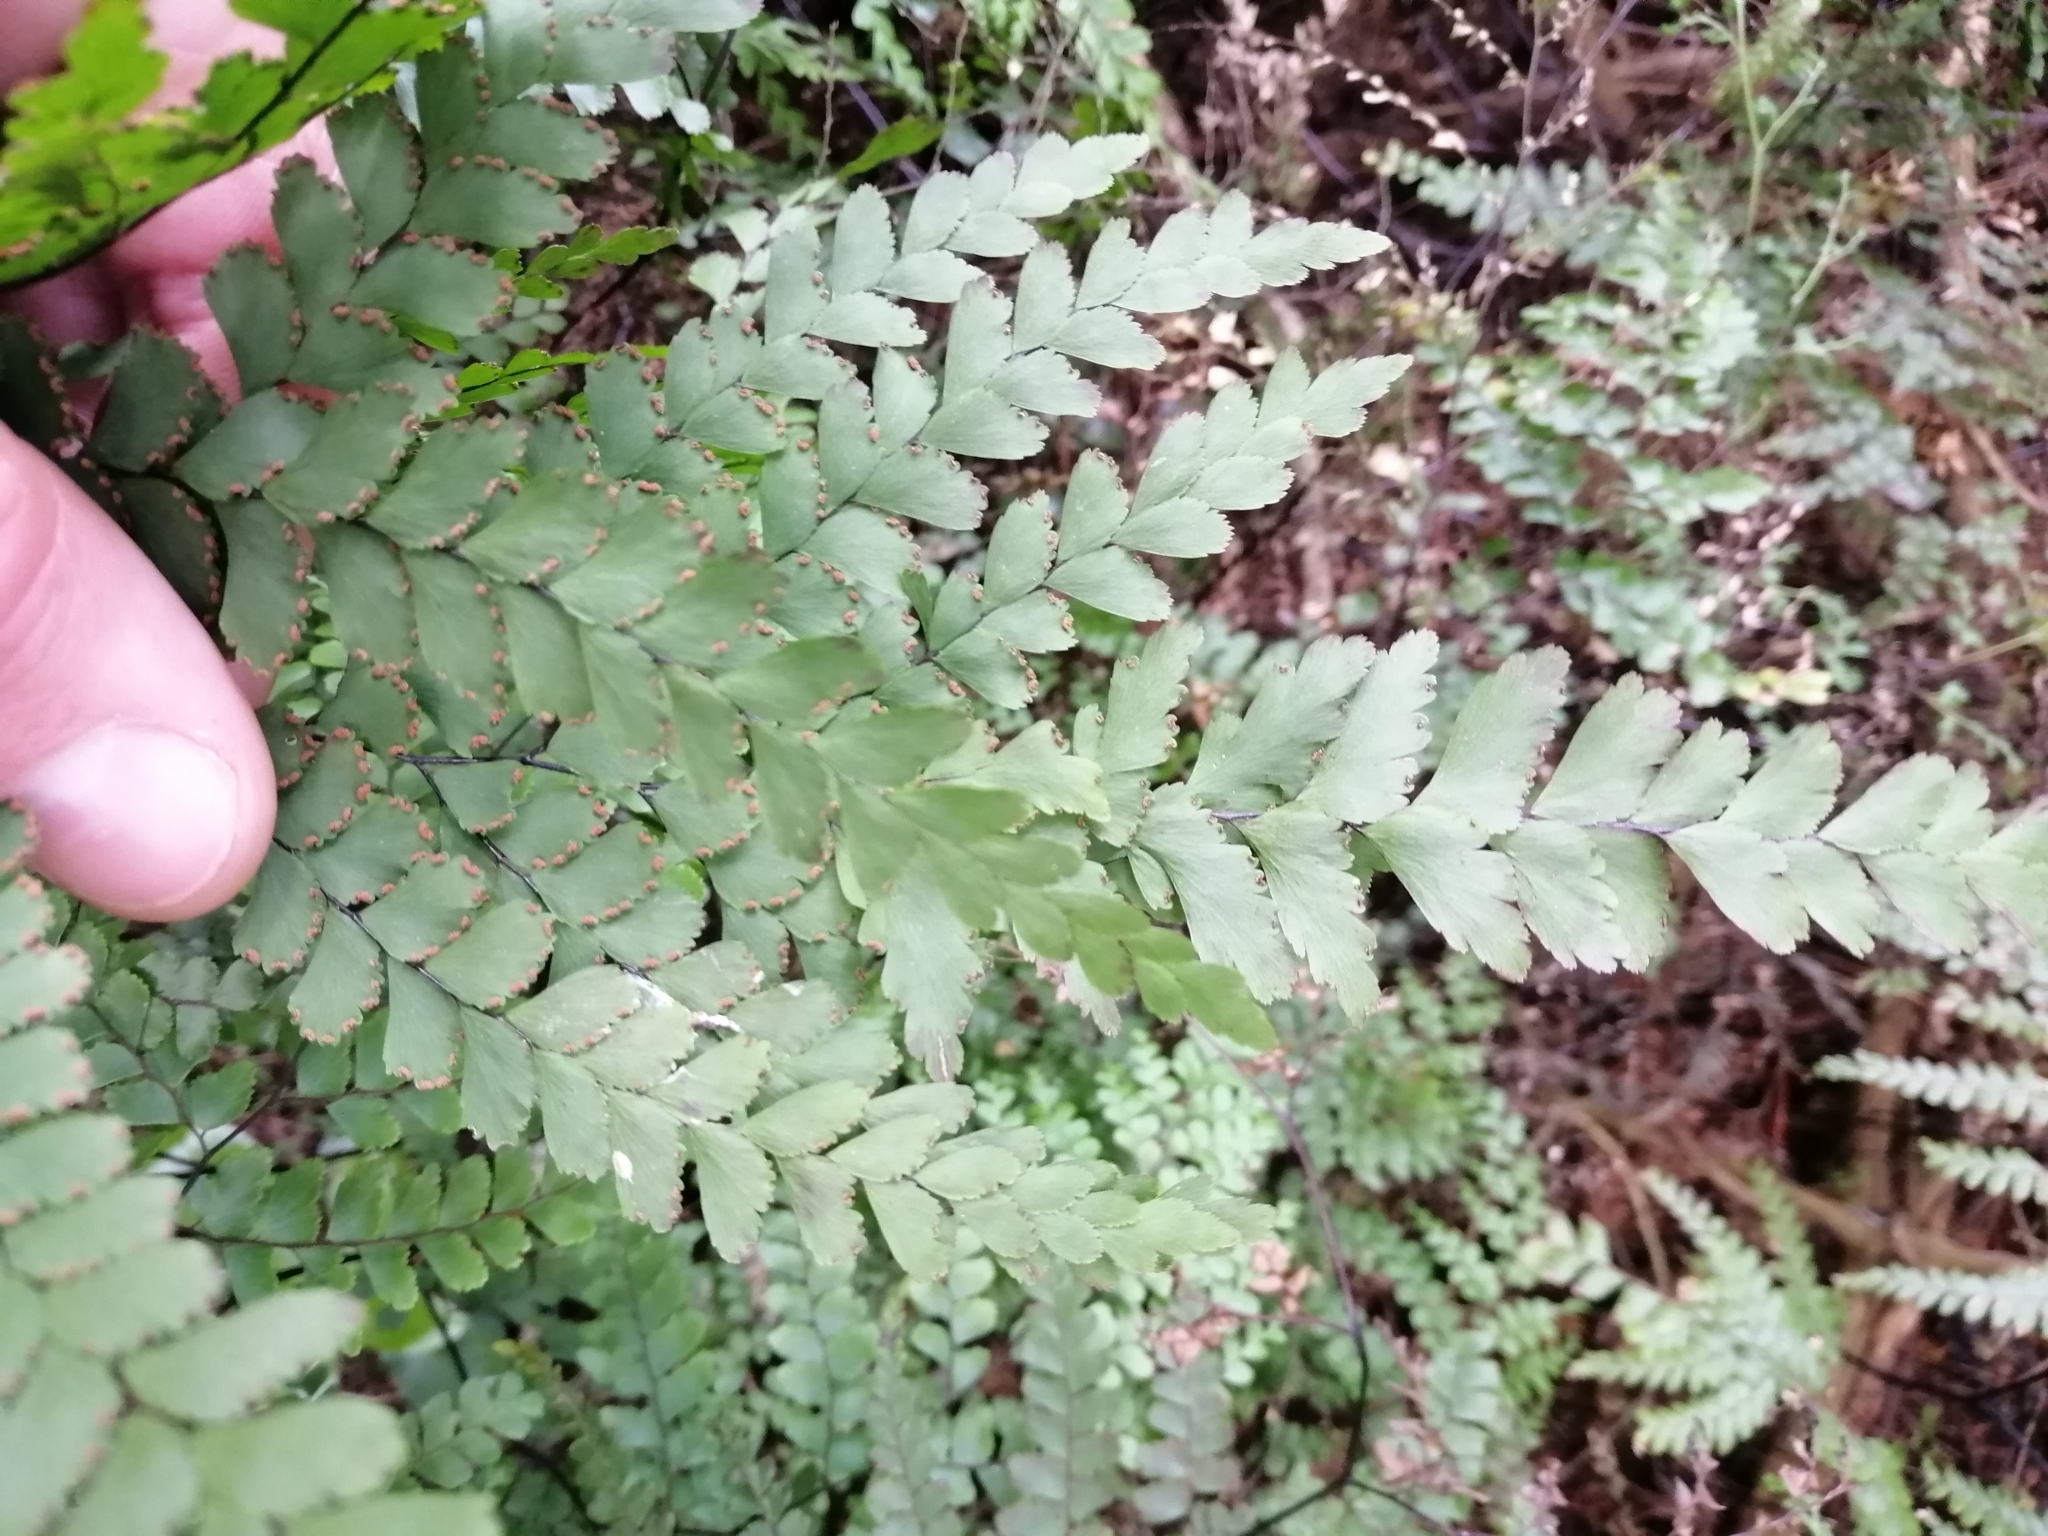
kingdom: Plantae
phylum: Tracheophyta
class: Polypodiopsida
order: Polypodiales
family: Pteridaceae
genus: Adiantum
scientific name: Adiantum formosum
